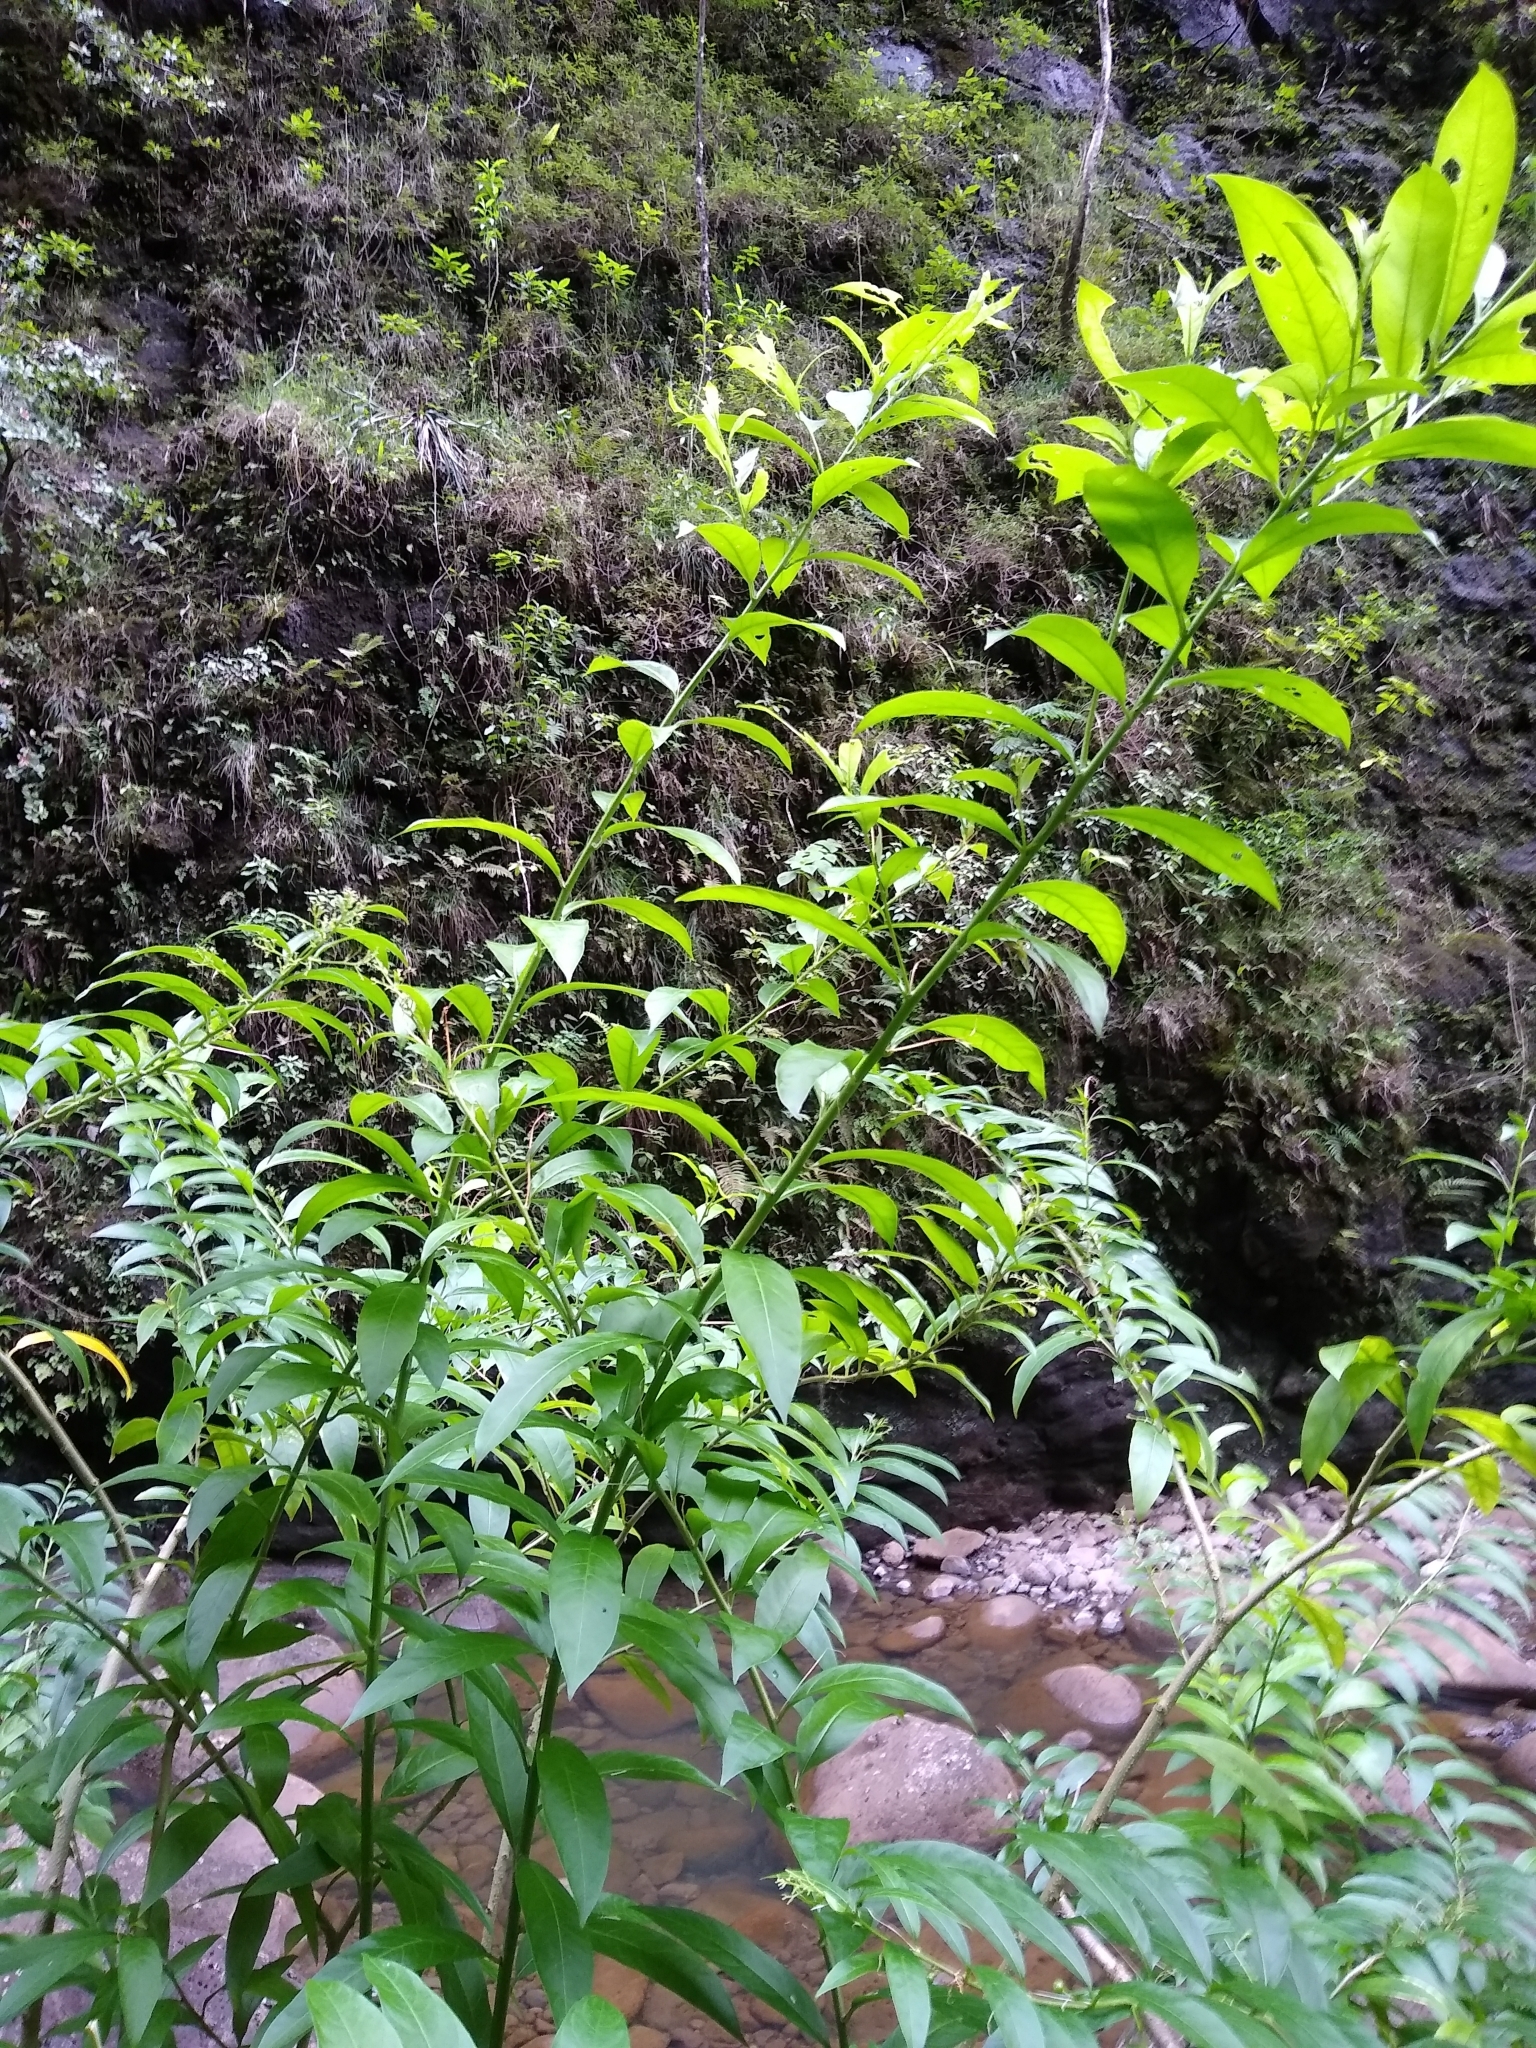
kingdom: Plantae
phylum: Tracheophyta
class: Magnoliopsida
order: Solanales
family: Solanaceae
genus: Cestrum
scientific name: Cestrum nocturnum
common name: Night jessamine
